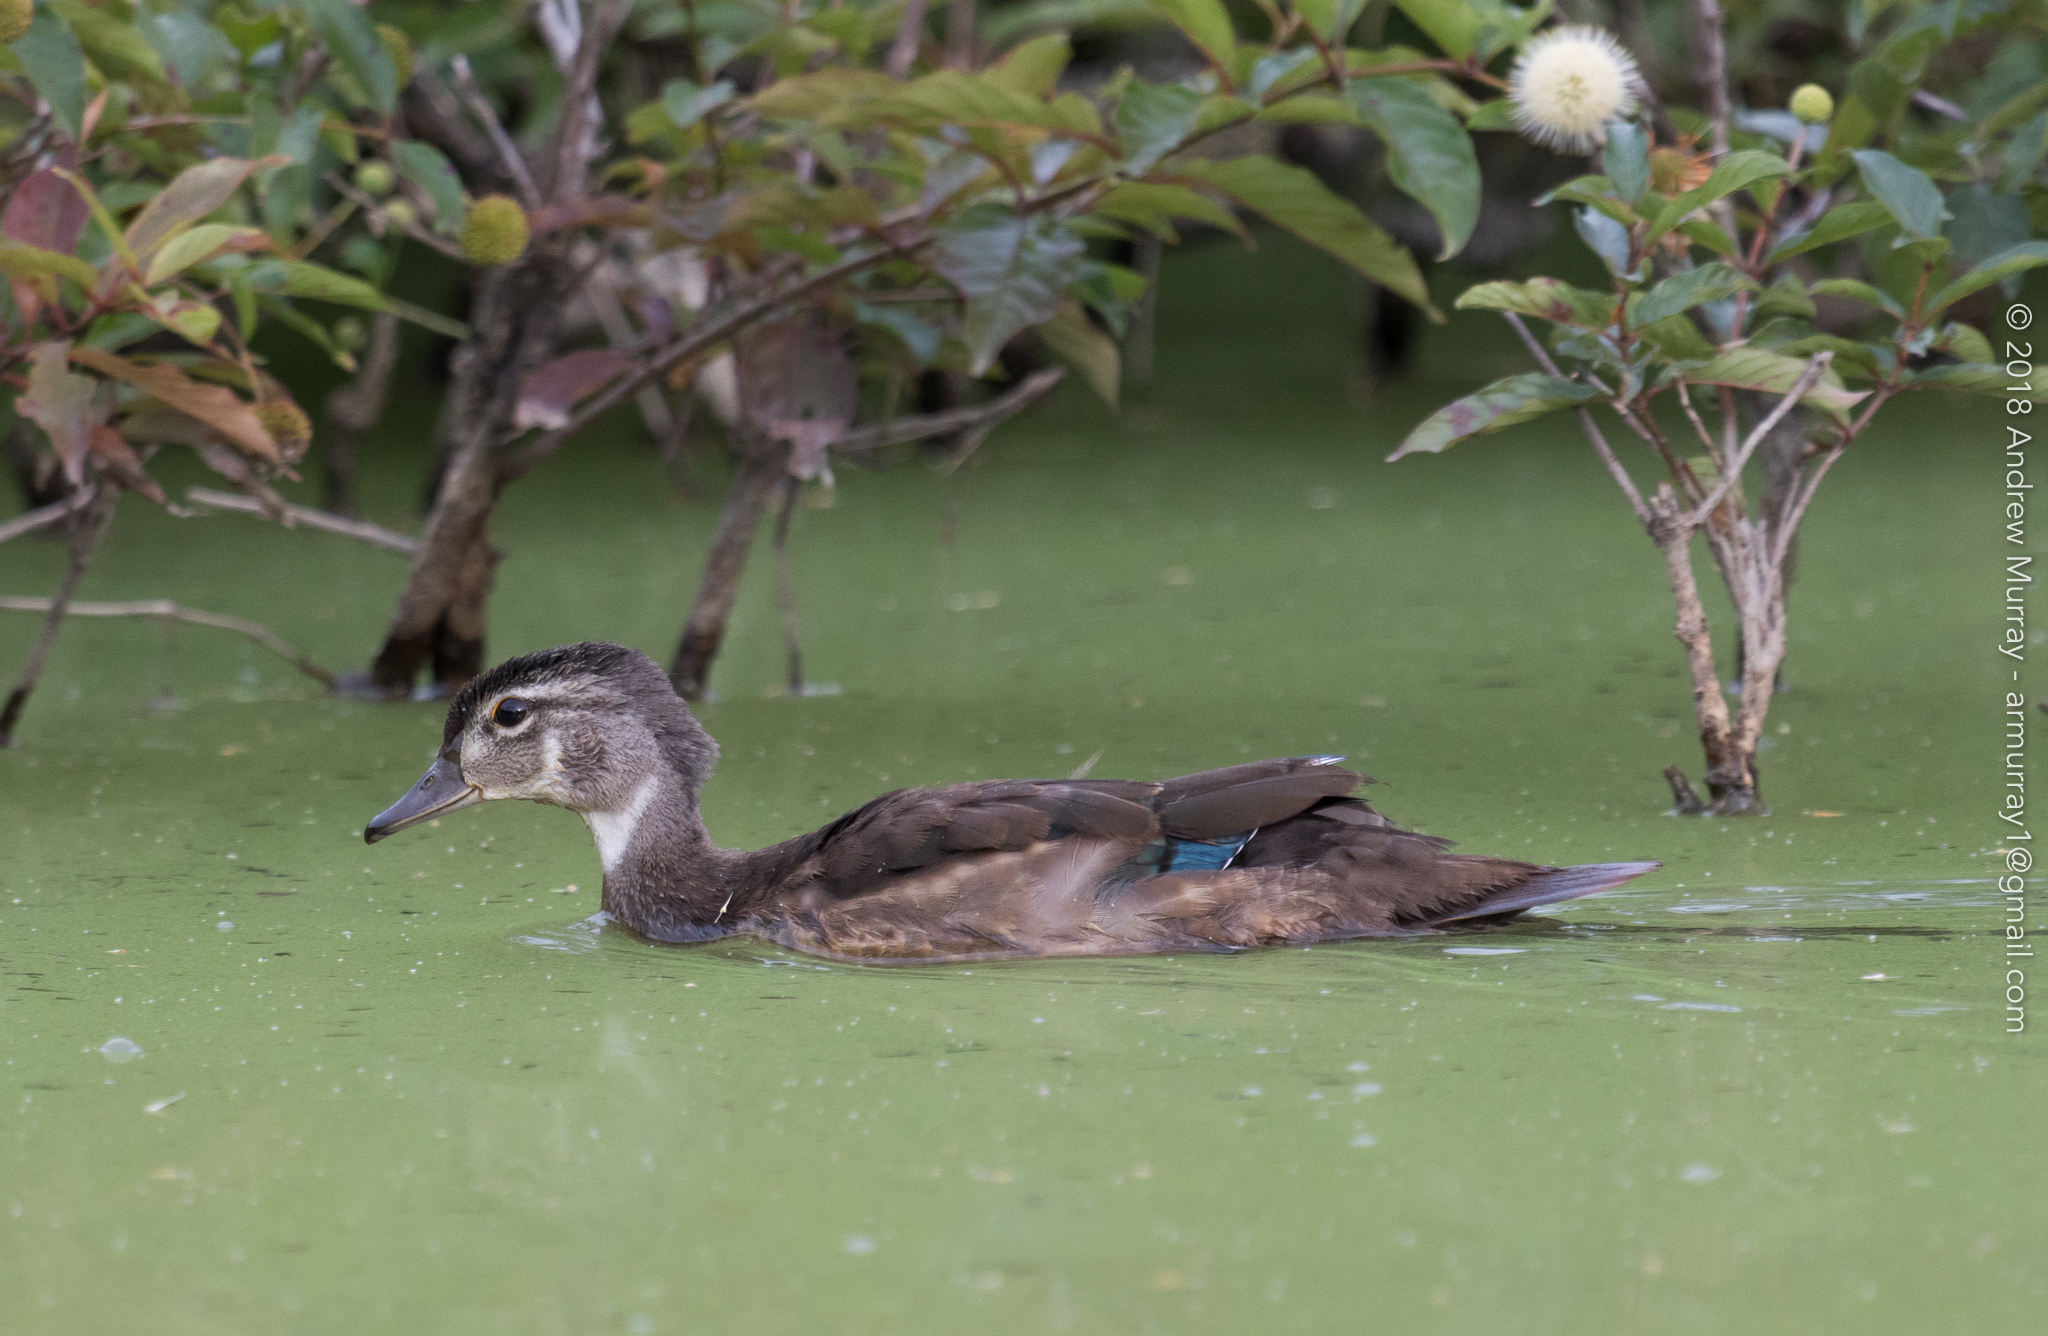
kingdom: Animalia
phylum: Chordata
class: Aves
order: Anseriformes
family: Anatidae
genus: Aix
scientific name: Aix sponsa
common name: Wood duck
